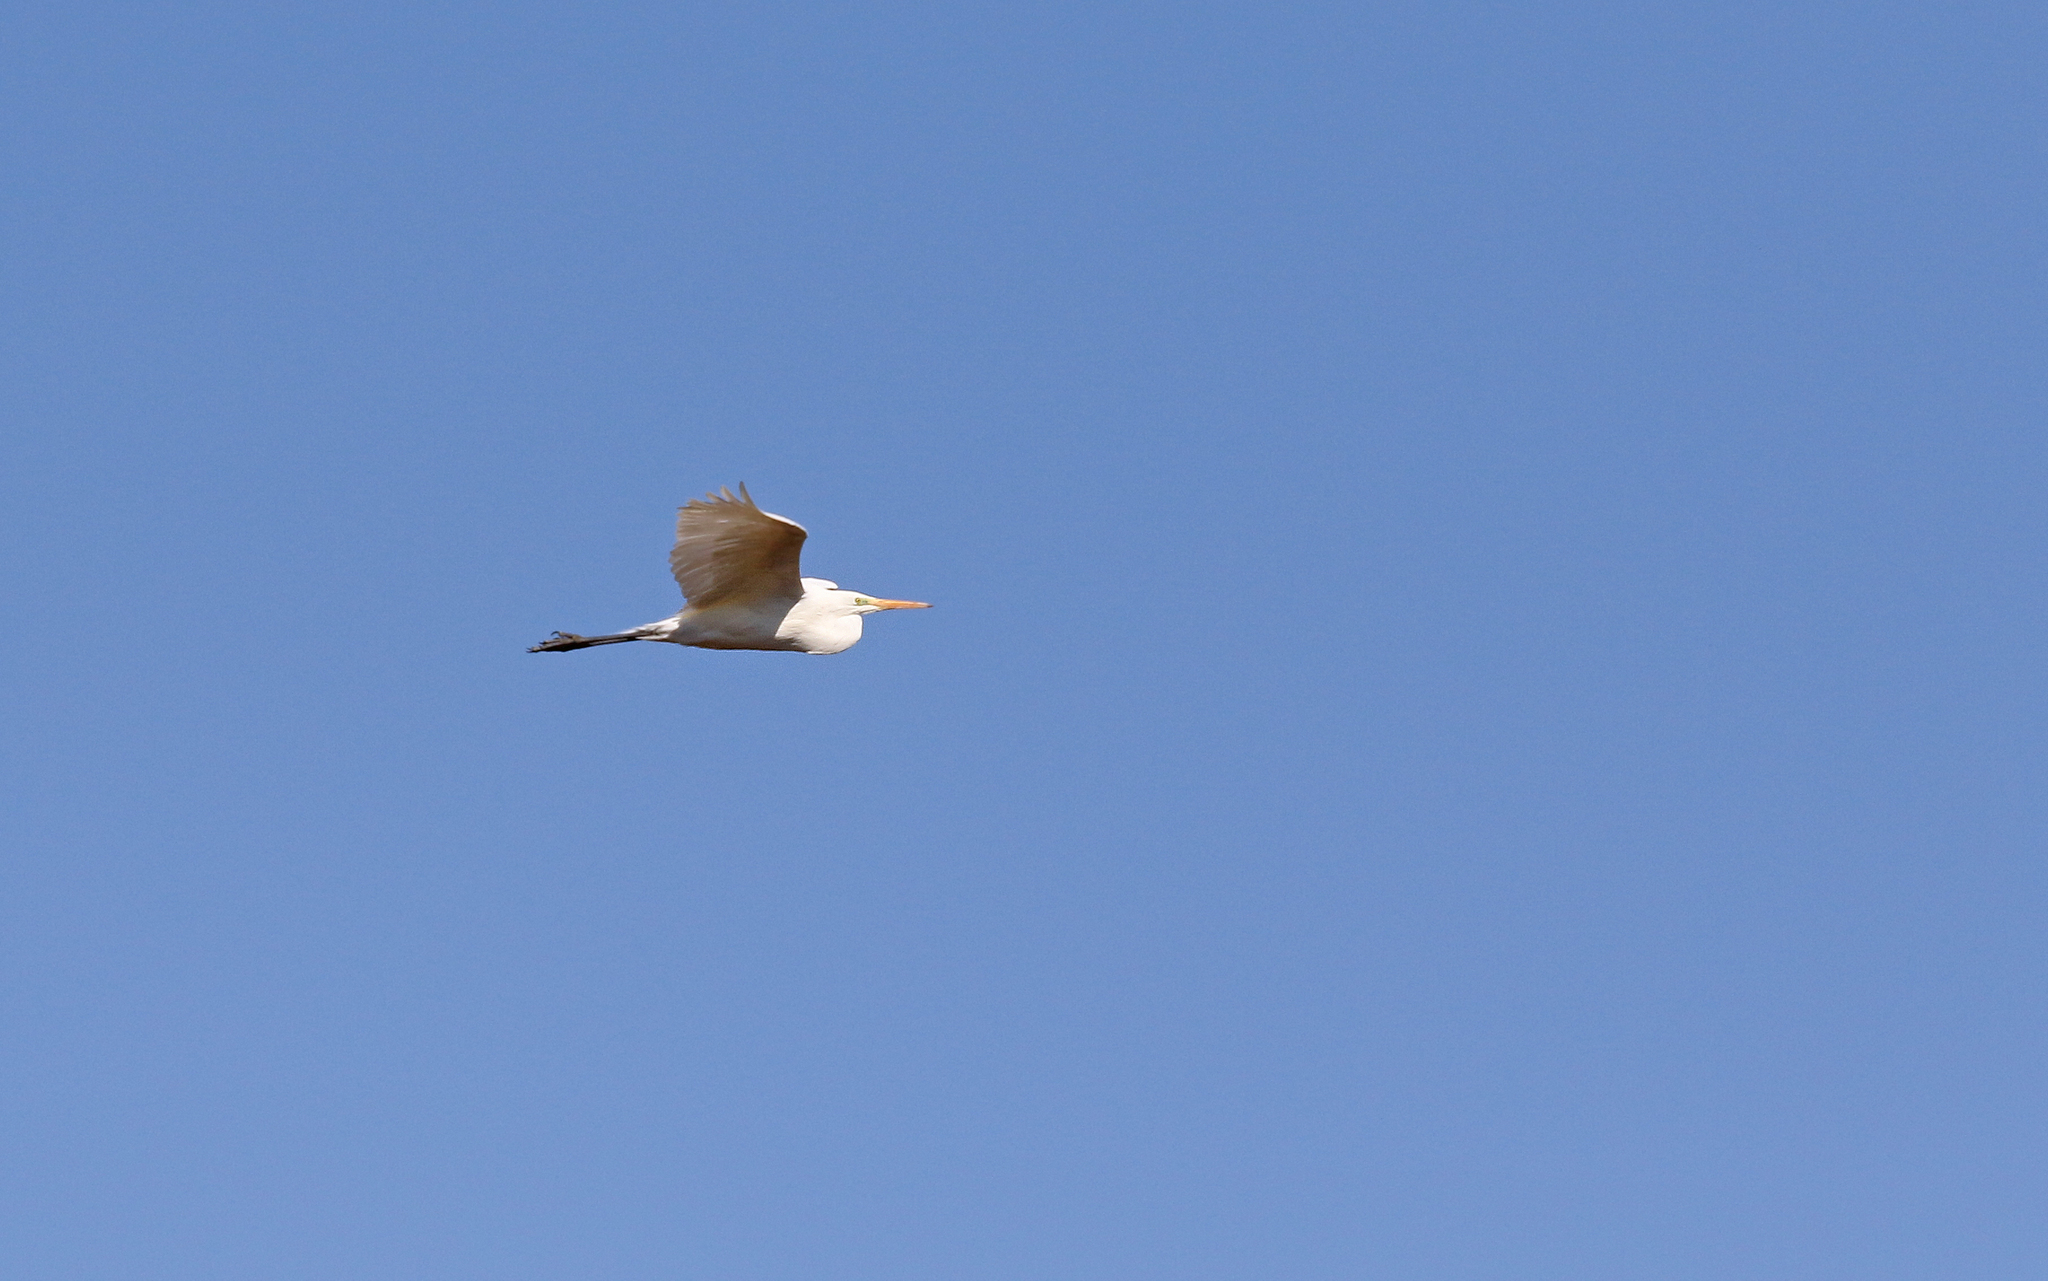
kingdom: Animalia
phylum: Chordata
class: Aves
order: Pelecaniformes
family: Ardeidae
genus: Ardea
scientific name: Ardea alba
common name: Great egret
